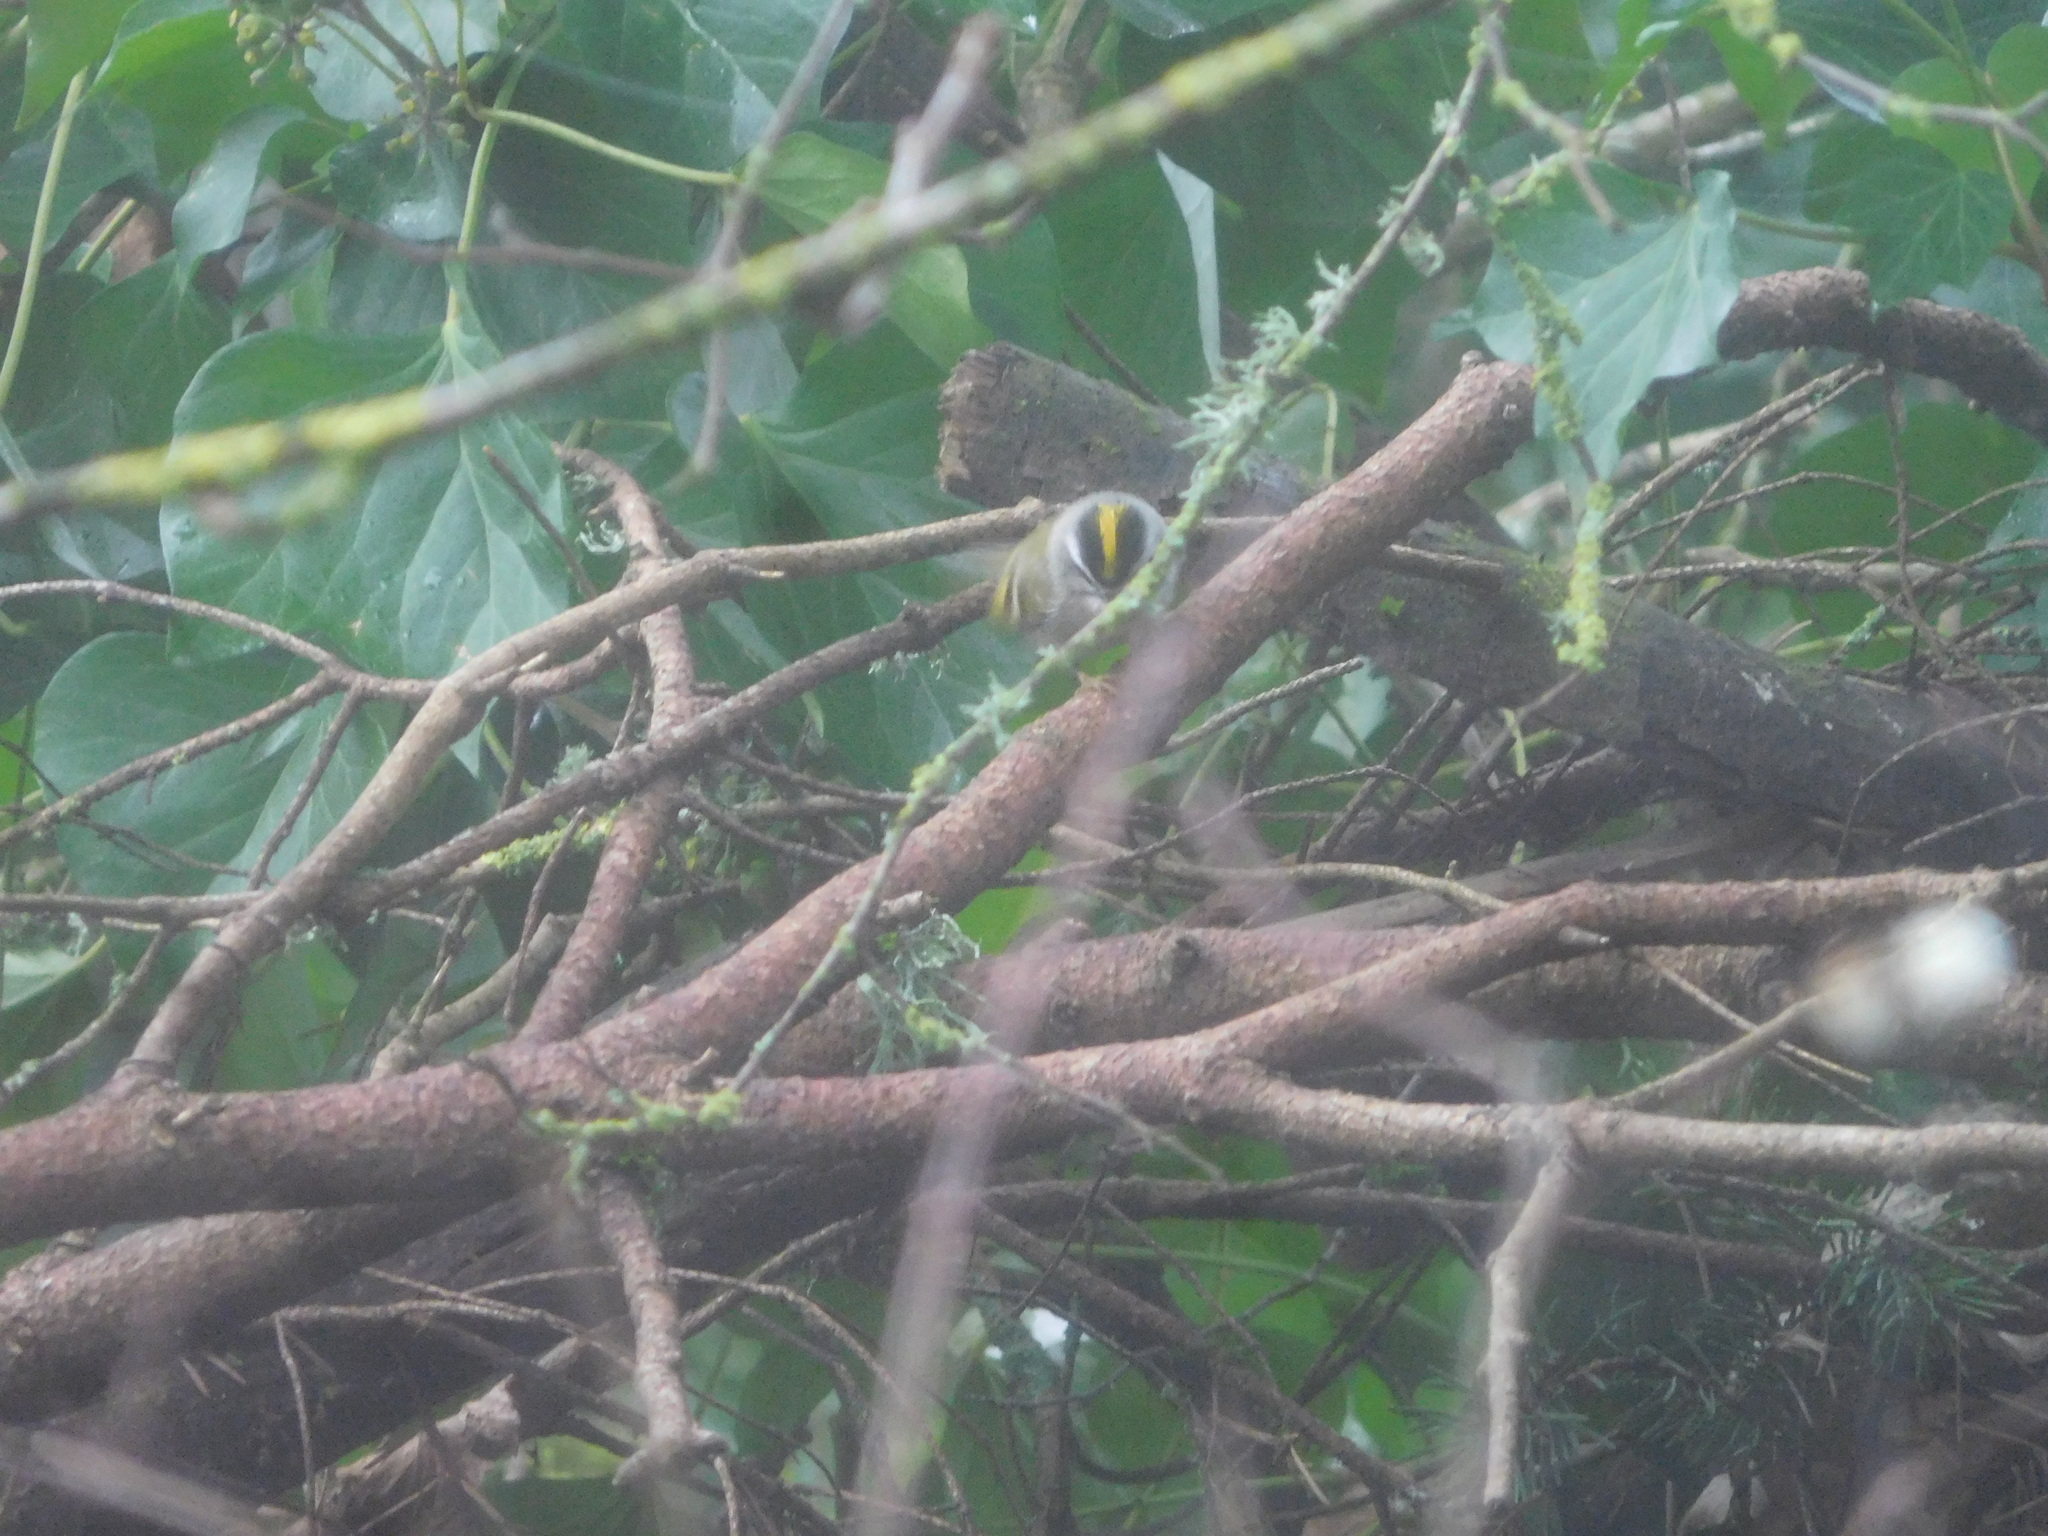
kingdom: Animalia
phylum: Chordata
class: Aves
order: Passeriformes
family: Regulidae
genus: Regulus
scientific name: Regulus satrapa
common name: Golden-crowned kinglet
